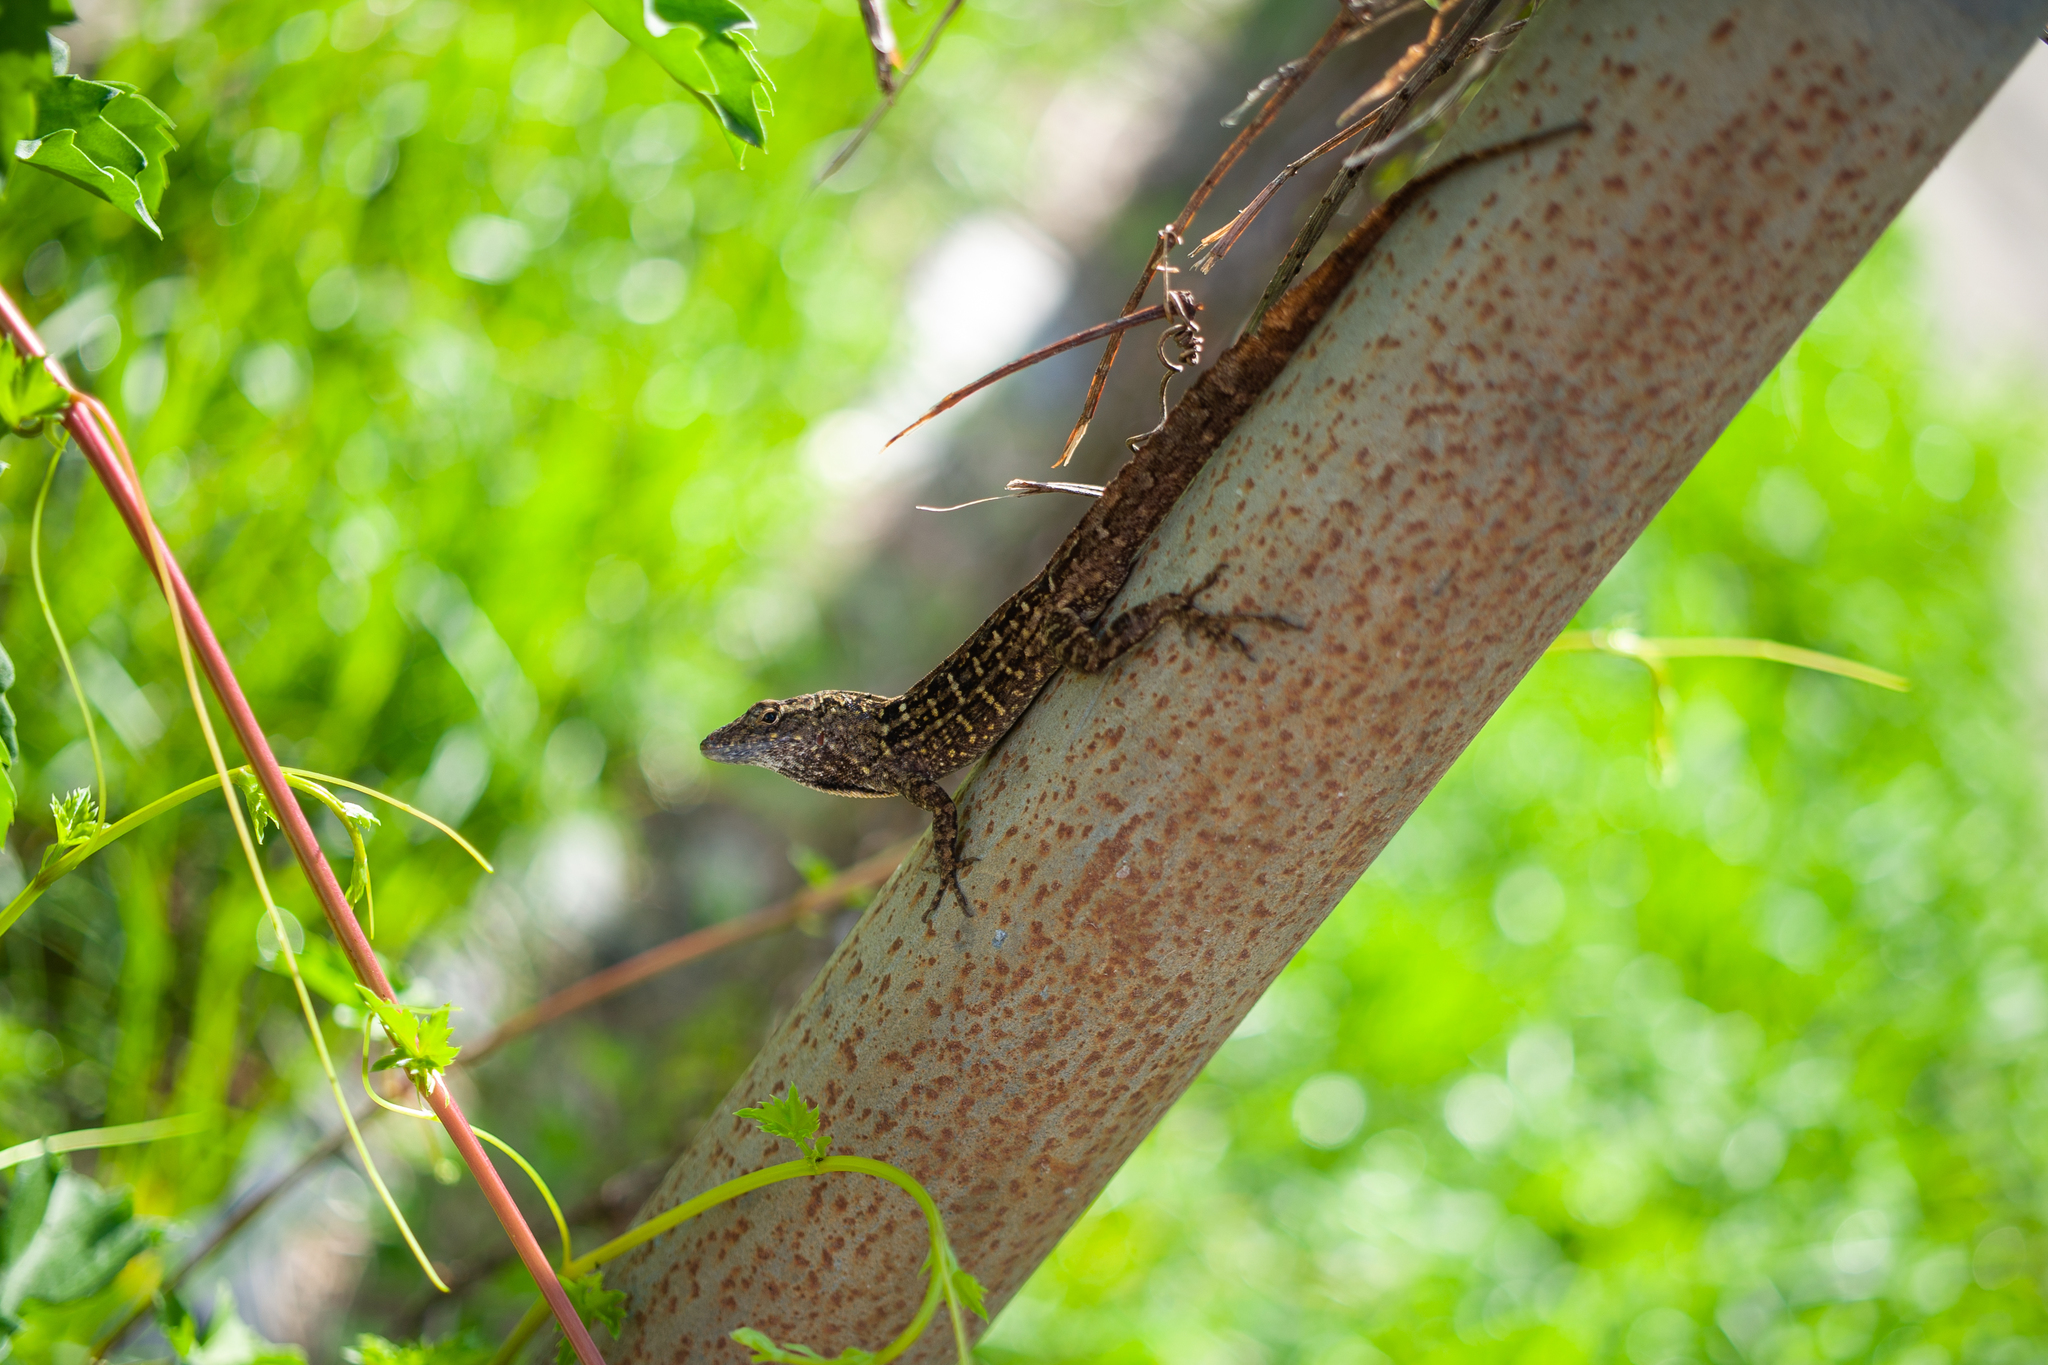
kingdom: Animalia
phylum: Chordata
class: Squamata
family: Dactyloidae
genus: Anolis
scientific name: Anolis sagrei
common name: Brown anole
